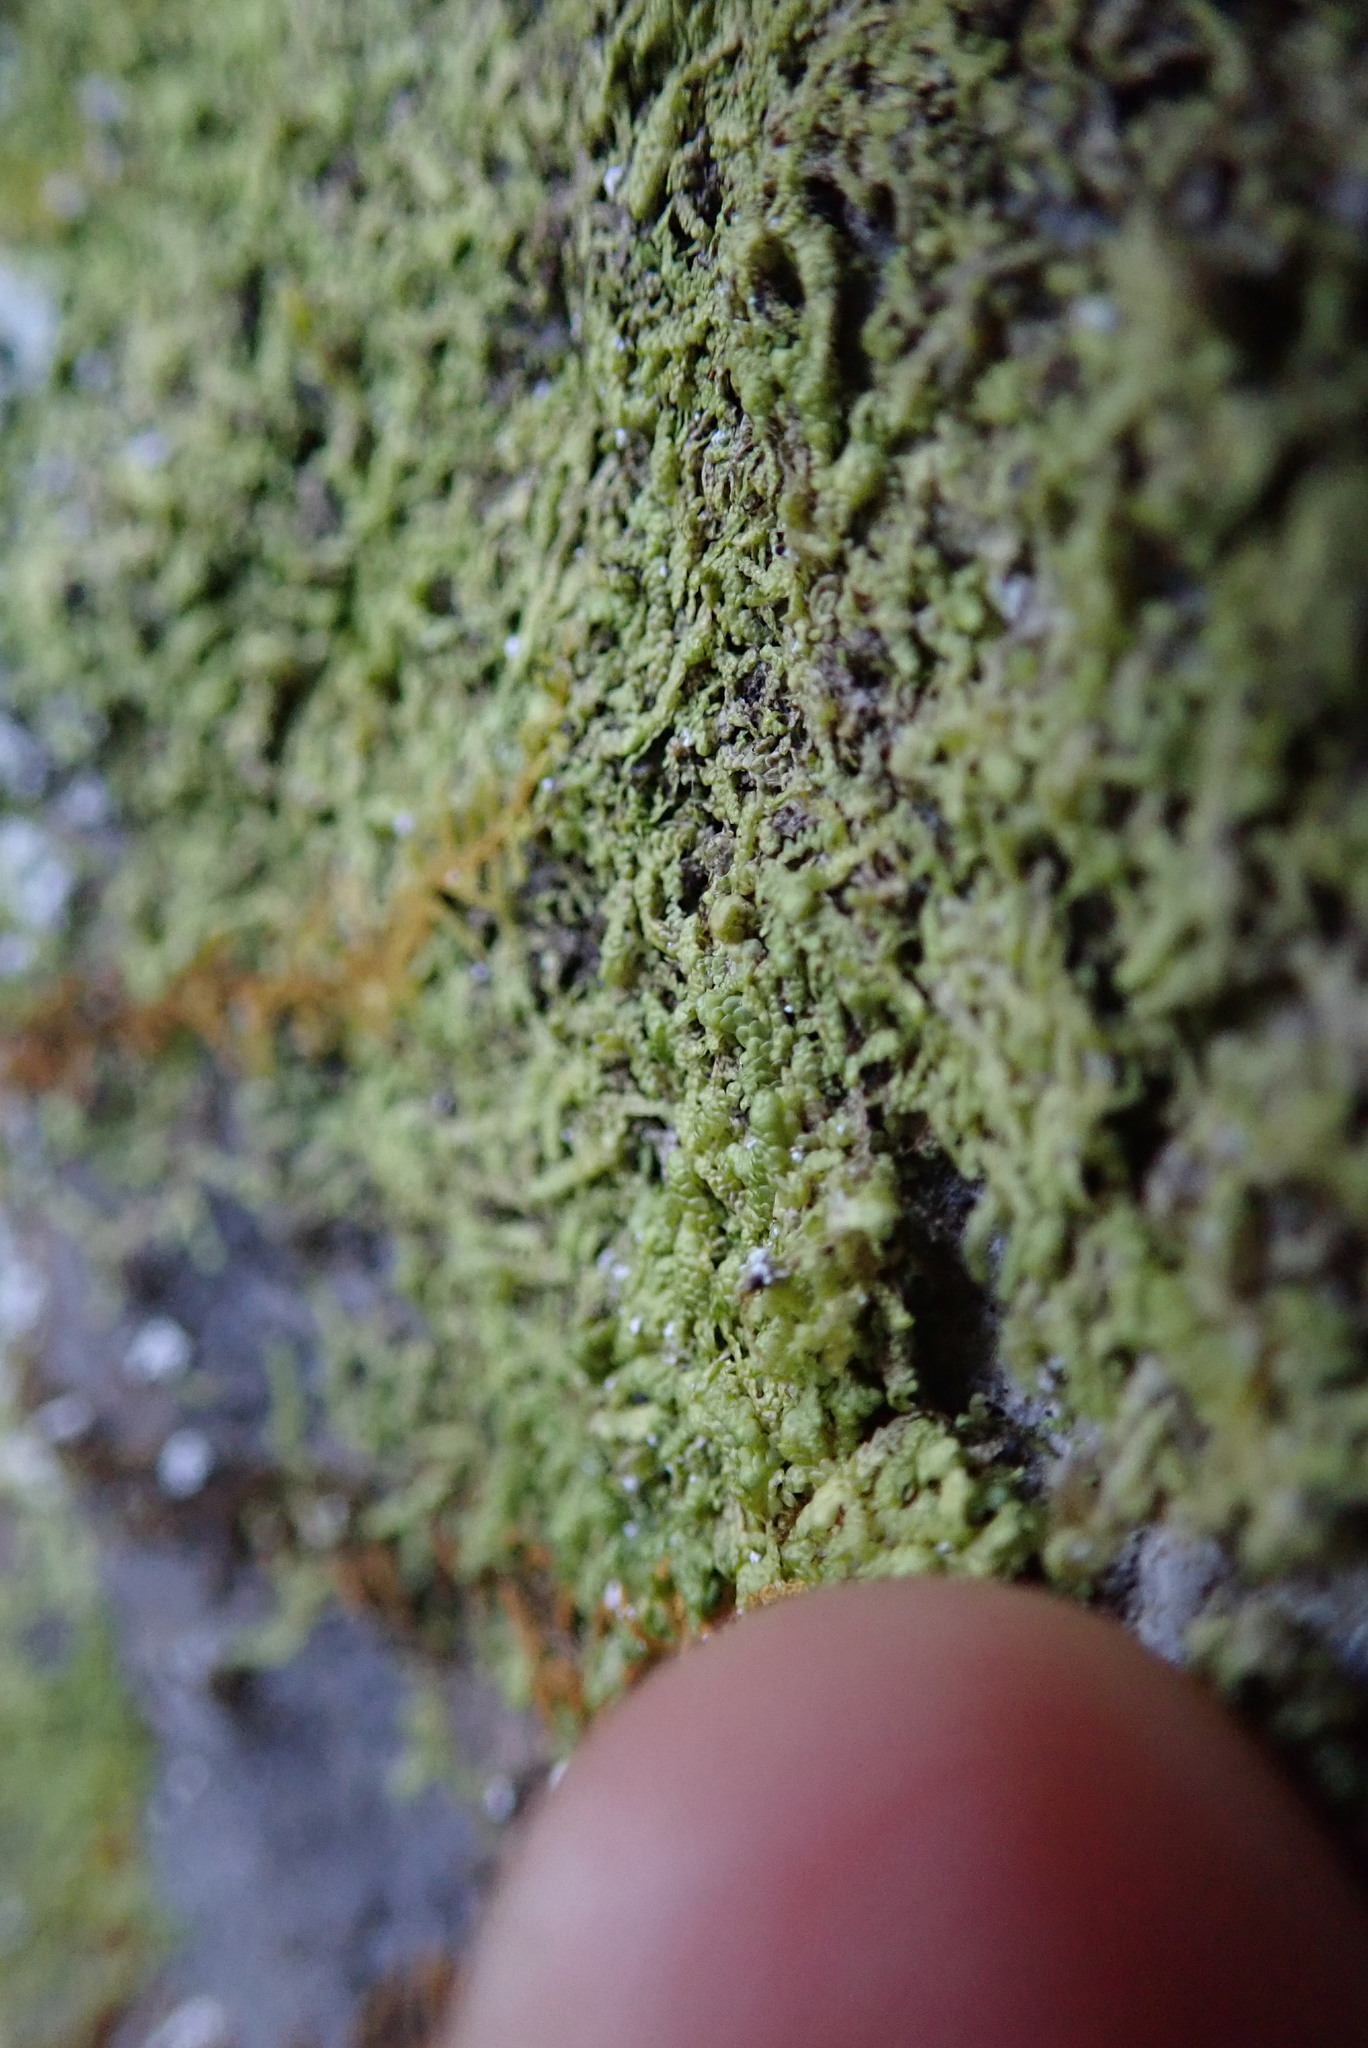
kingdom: Plantae
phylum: Marchantiophyta
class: Jungermanniopsida
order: Porellales
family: Radulaceae
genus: Radula
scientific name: Radula complanata
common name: Flat-leaved scalewort
